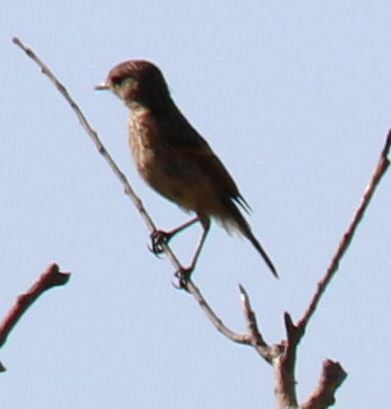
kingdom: Animalia
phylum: Chordata
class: Aves
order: Passeriformes
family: Muscicapidae
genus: Saxicola
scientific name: Saxicola rubicola
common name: European stonechat
